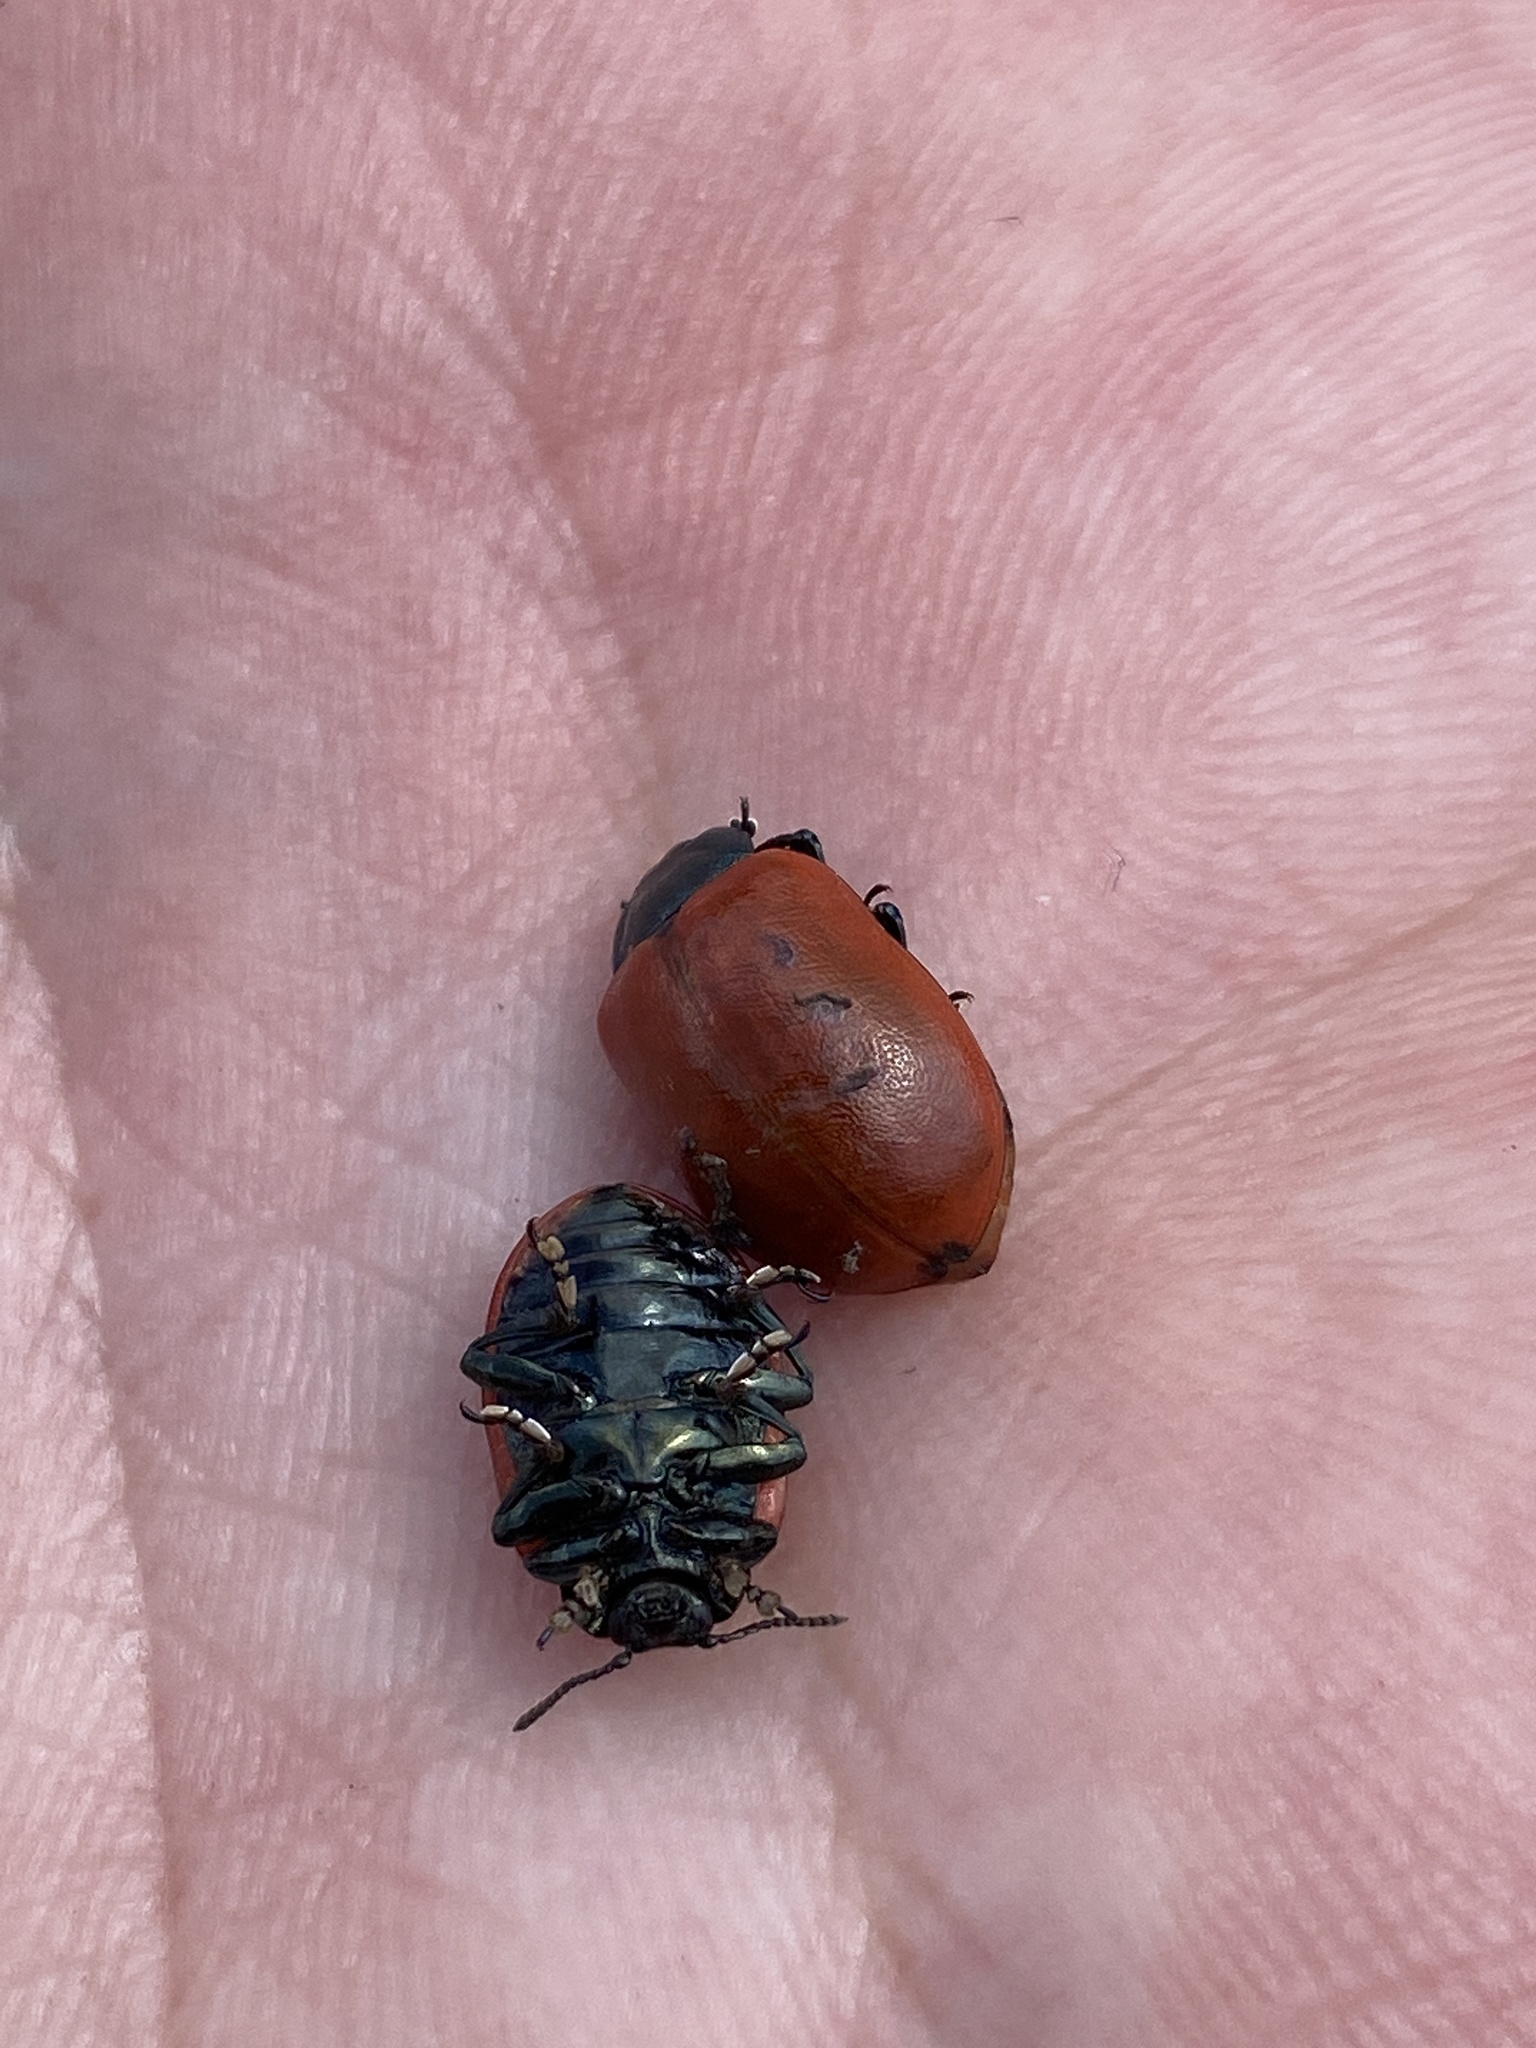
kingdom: Animalia
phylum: Arthropoda
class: Insecta
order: Coleoptera
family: Chrysomelidae
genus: Chrysomela
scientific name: Chrysomela populi
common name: Red poplar leaf beetle
